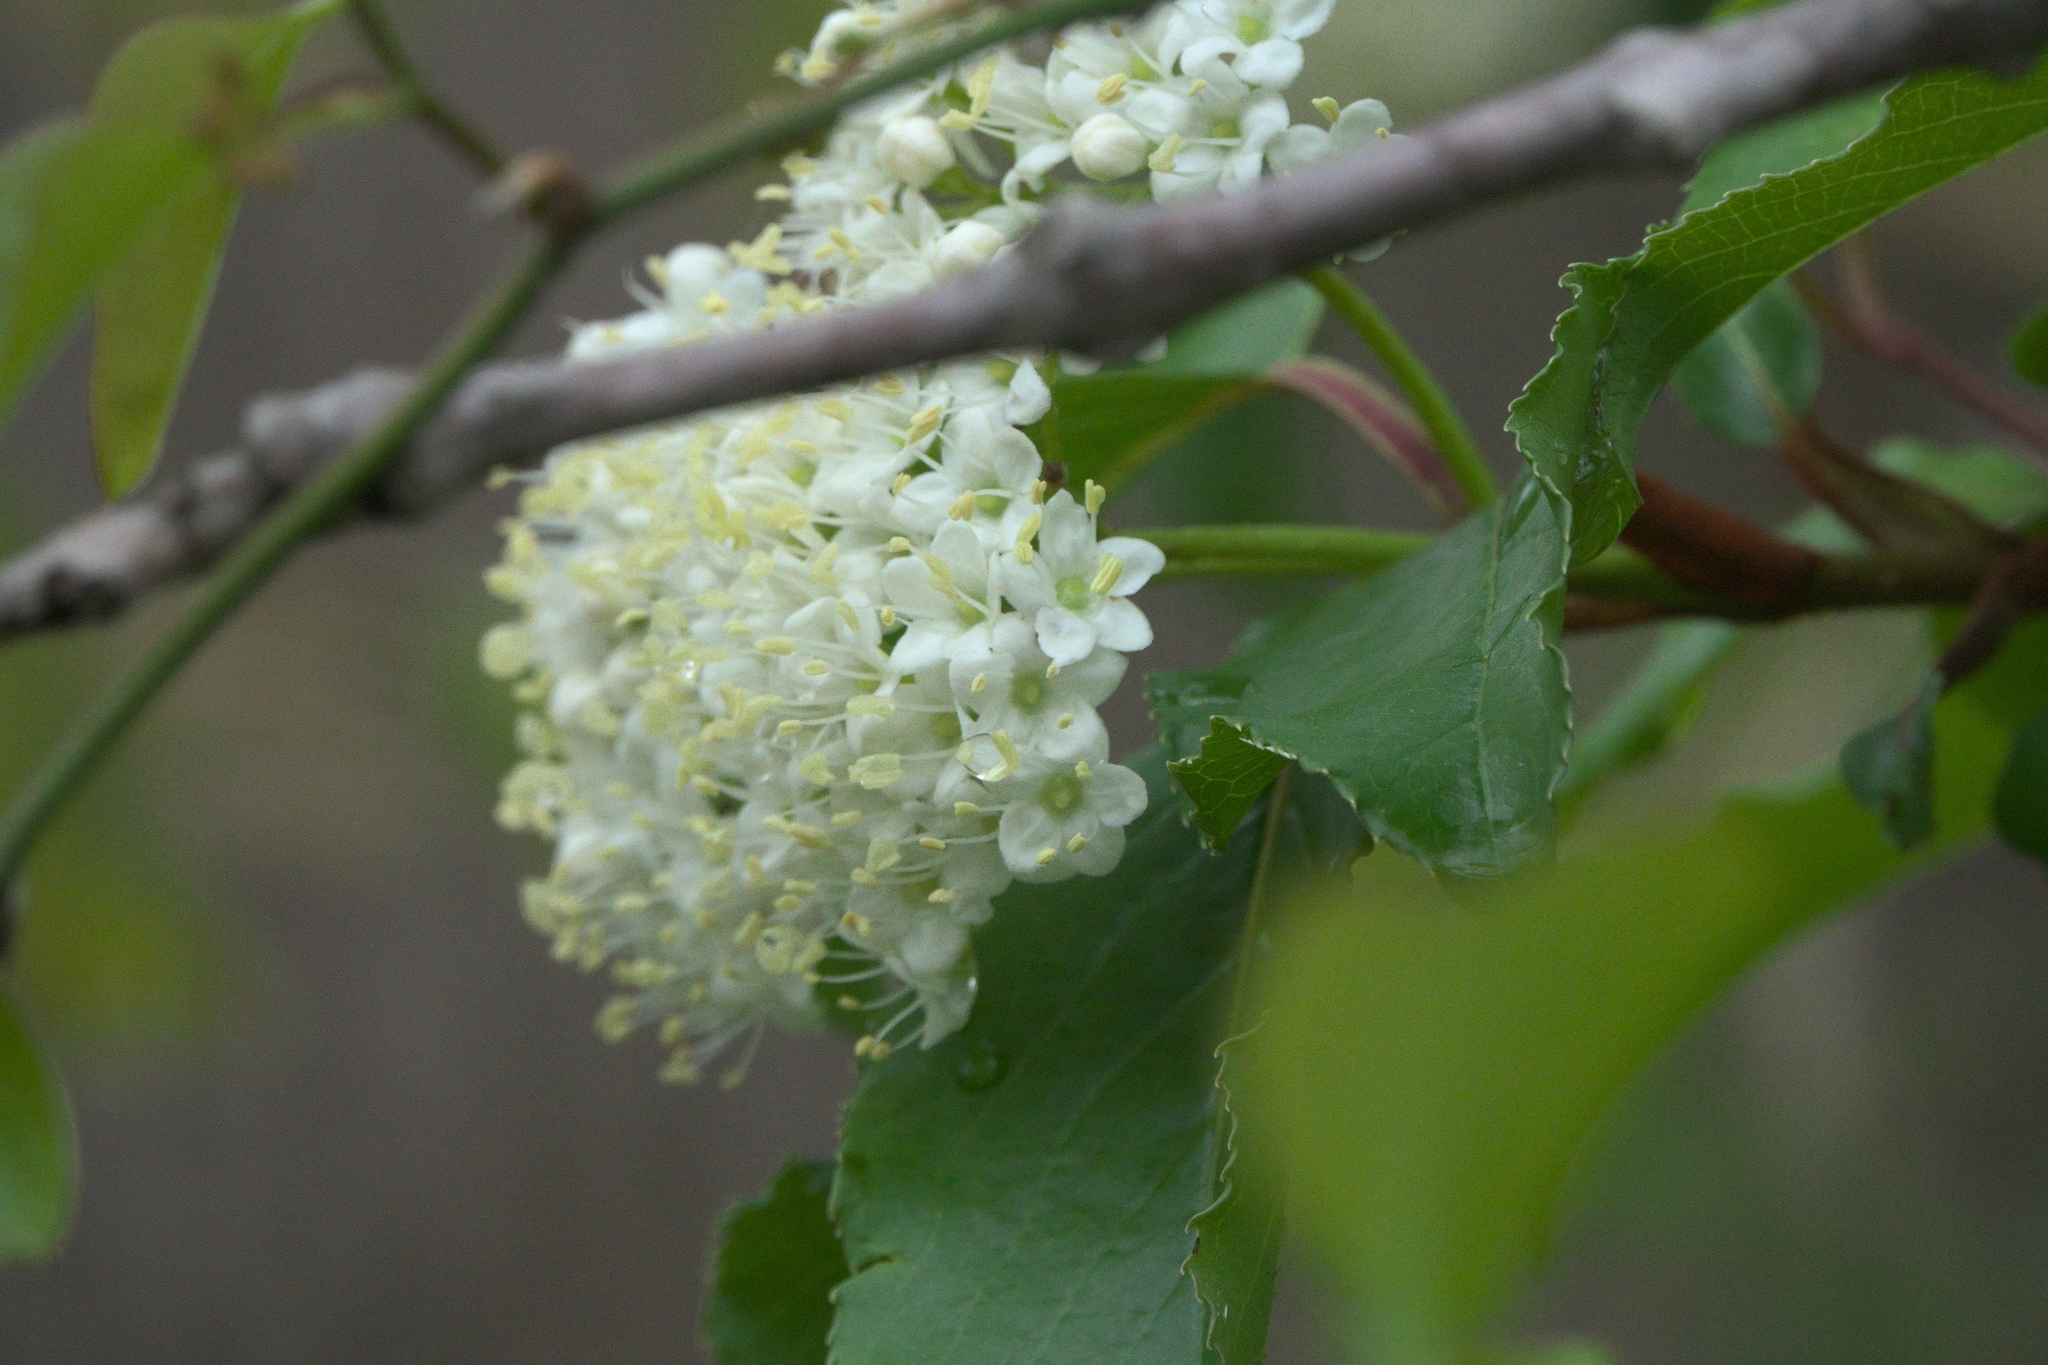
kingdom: Plantae
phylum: Tracheophyta
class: Magnoliopsida
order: Dipsacales
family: Viburnaceae
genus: Viburnum
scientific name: Viburnum rufidulum
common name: Blue haw
